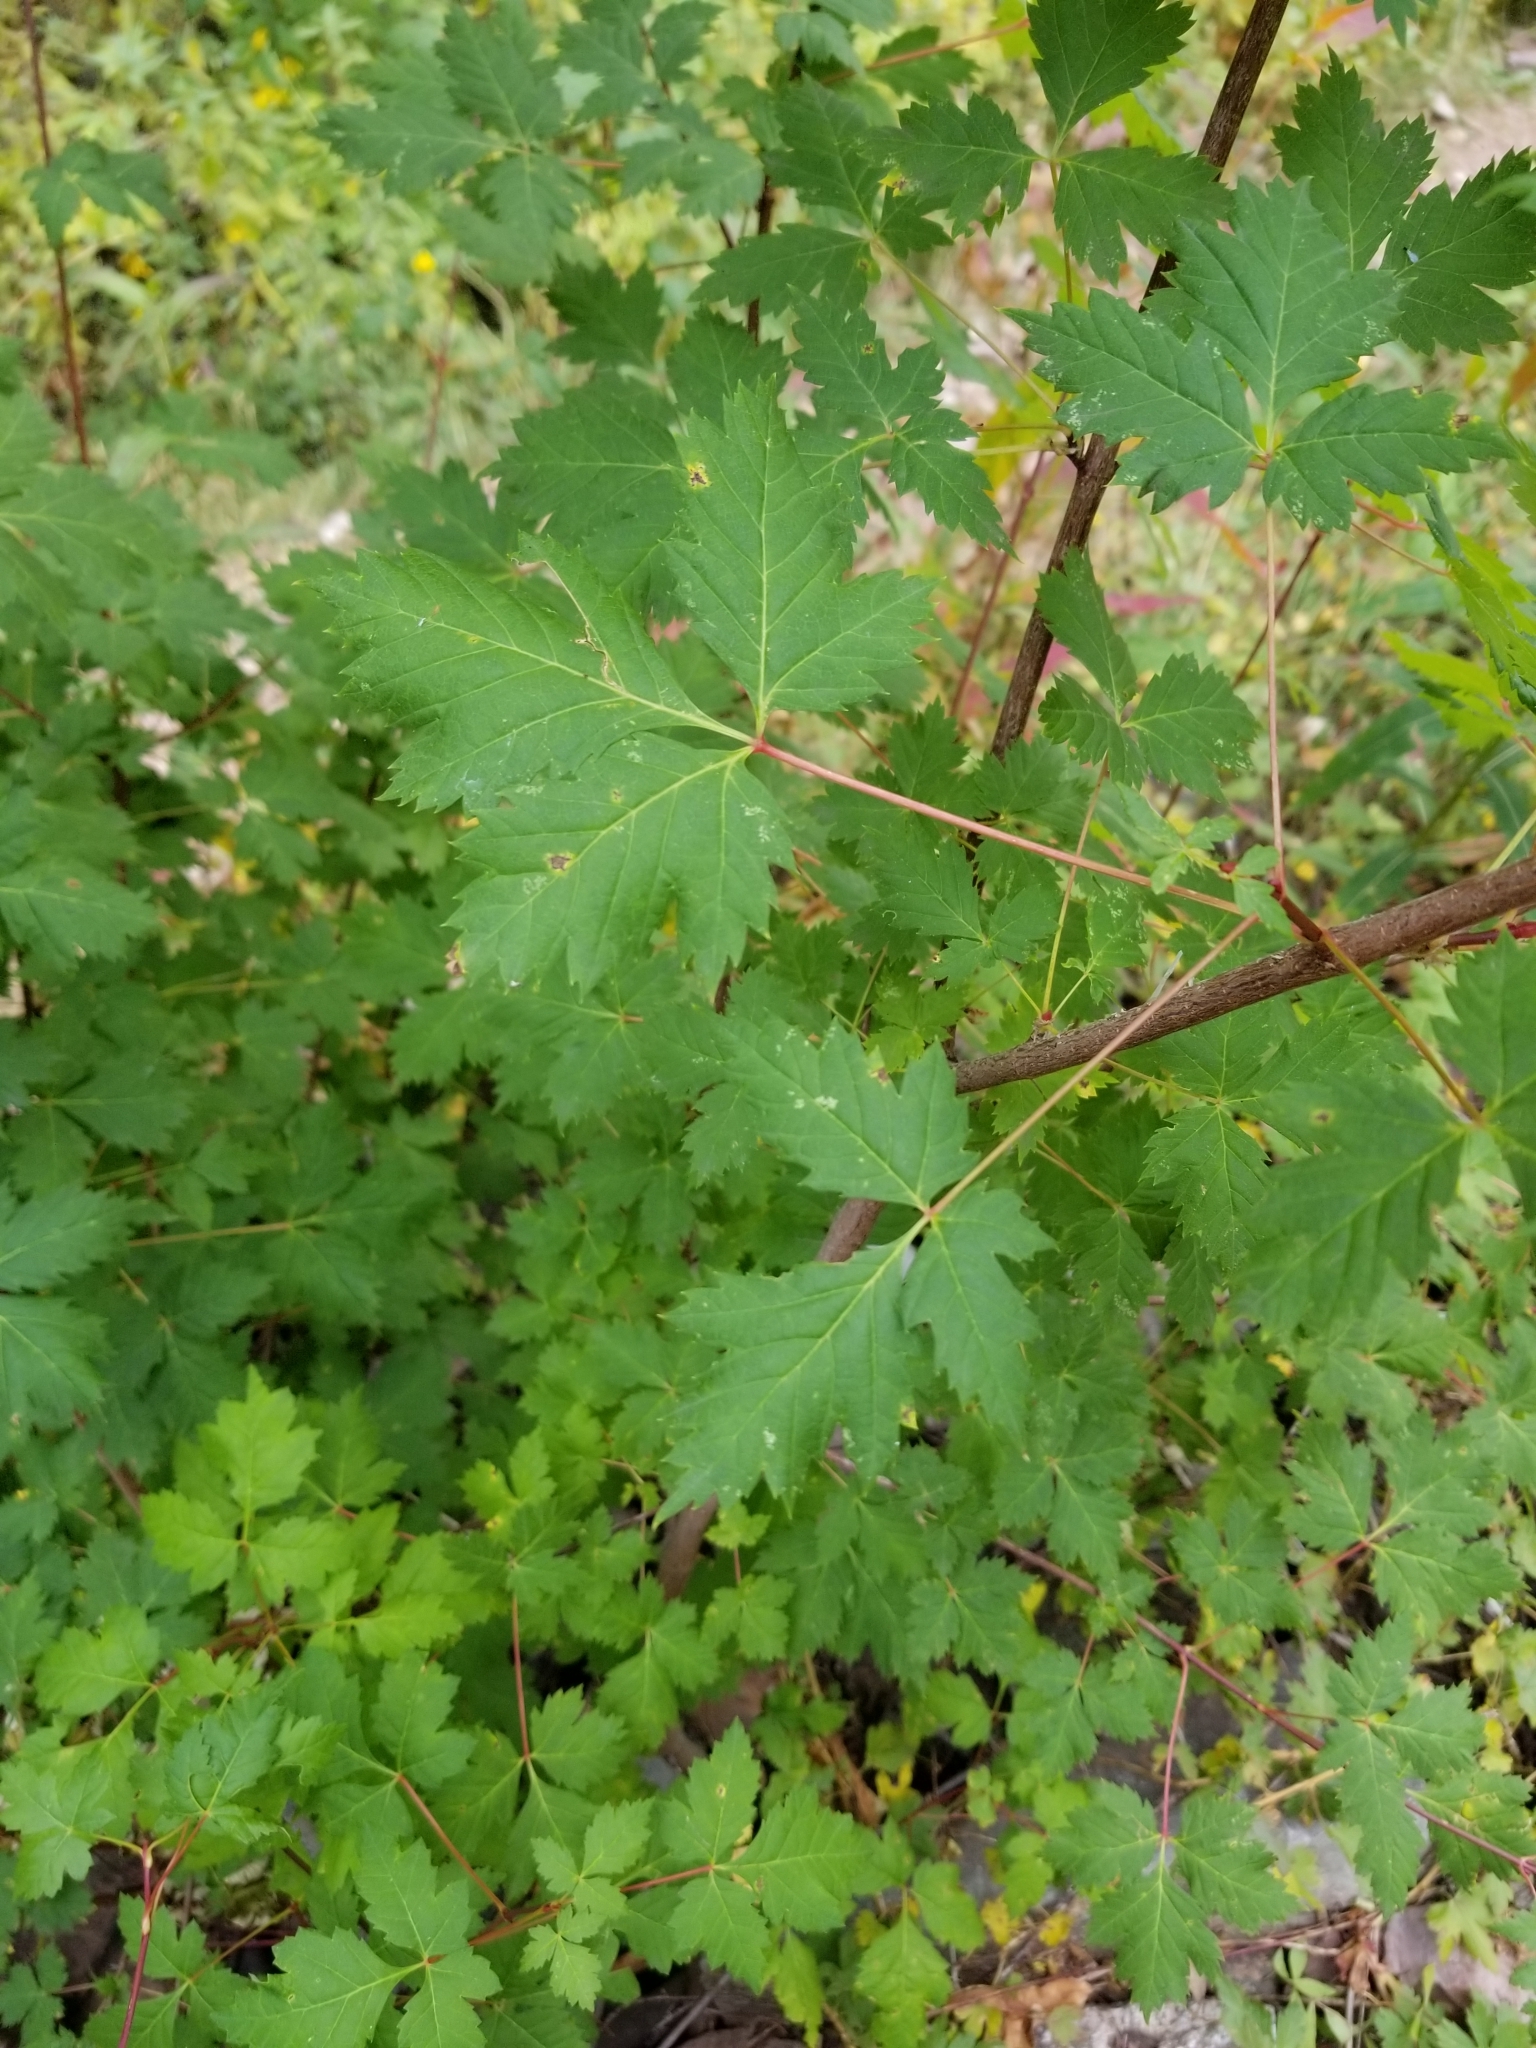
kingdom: Plantae
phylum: Tracheophyta
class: Magnoliopsida
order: Sapindales
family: Sapindaceae
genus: Acer
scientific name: Acer glabrum
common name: Rocky mountain maple
